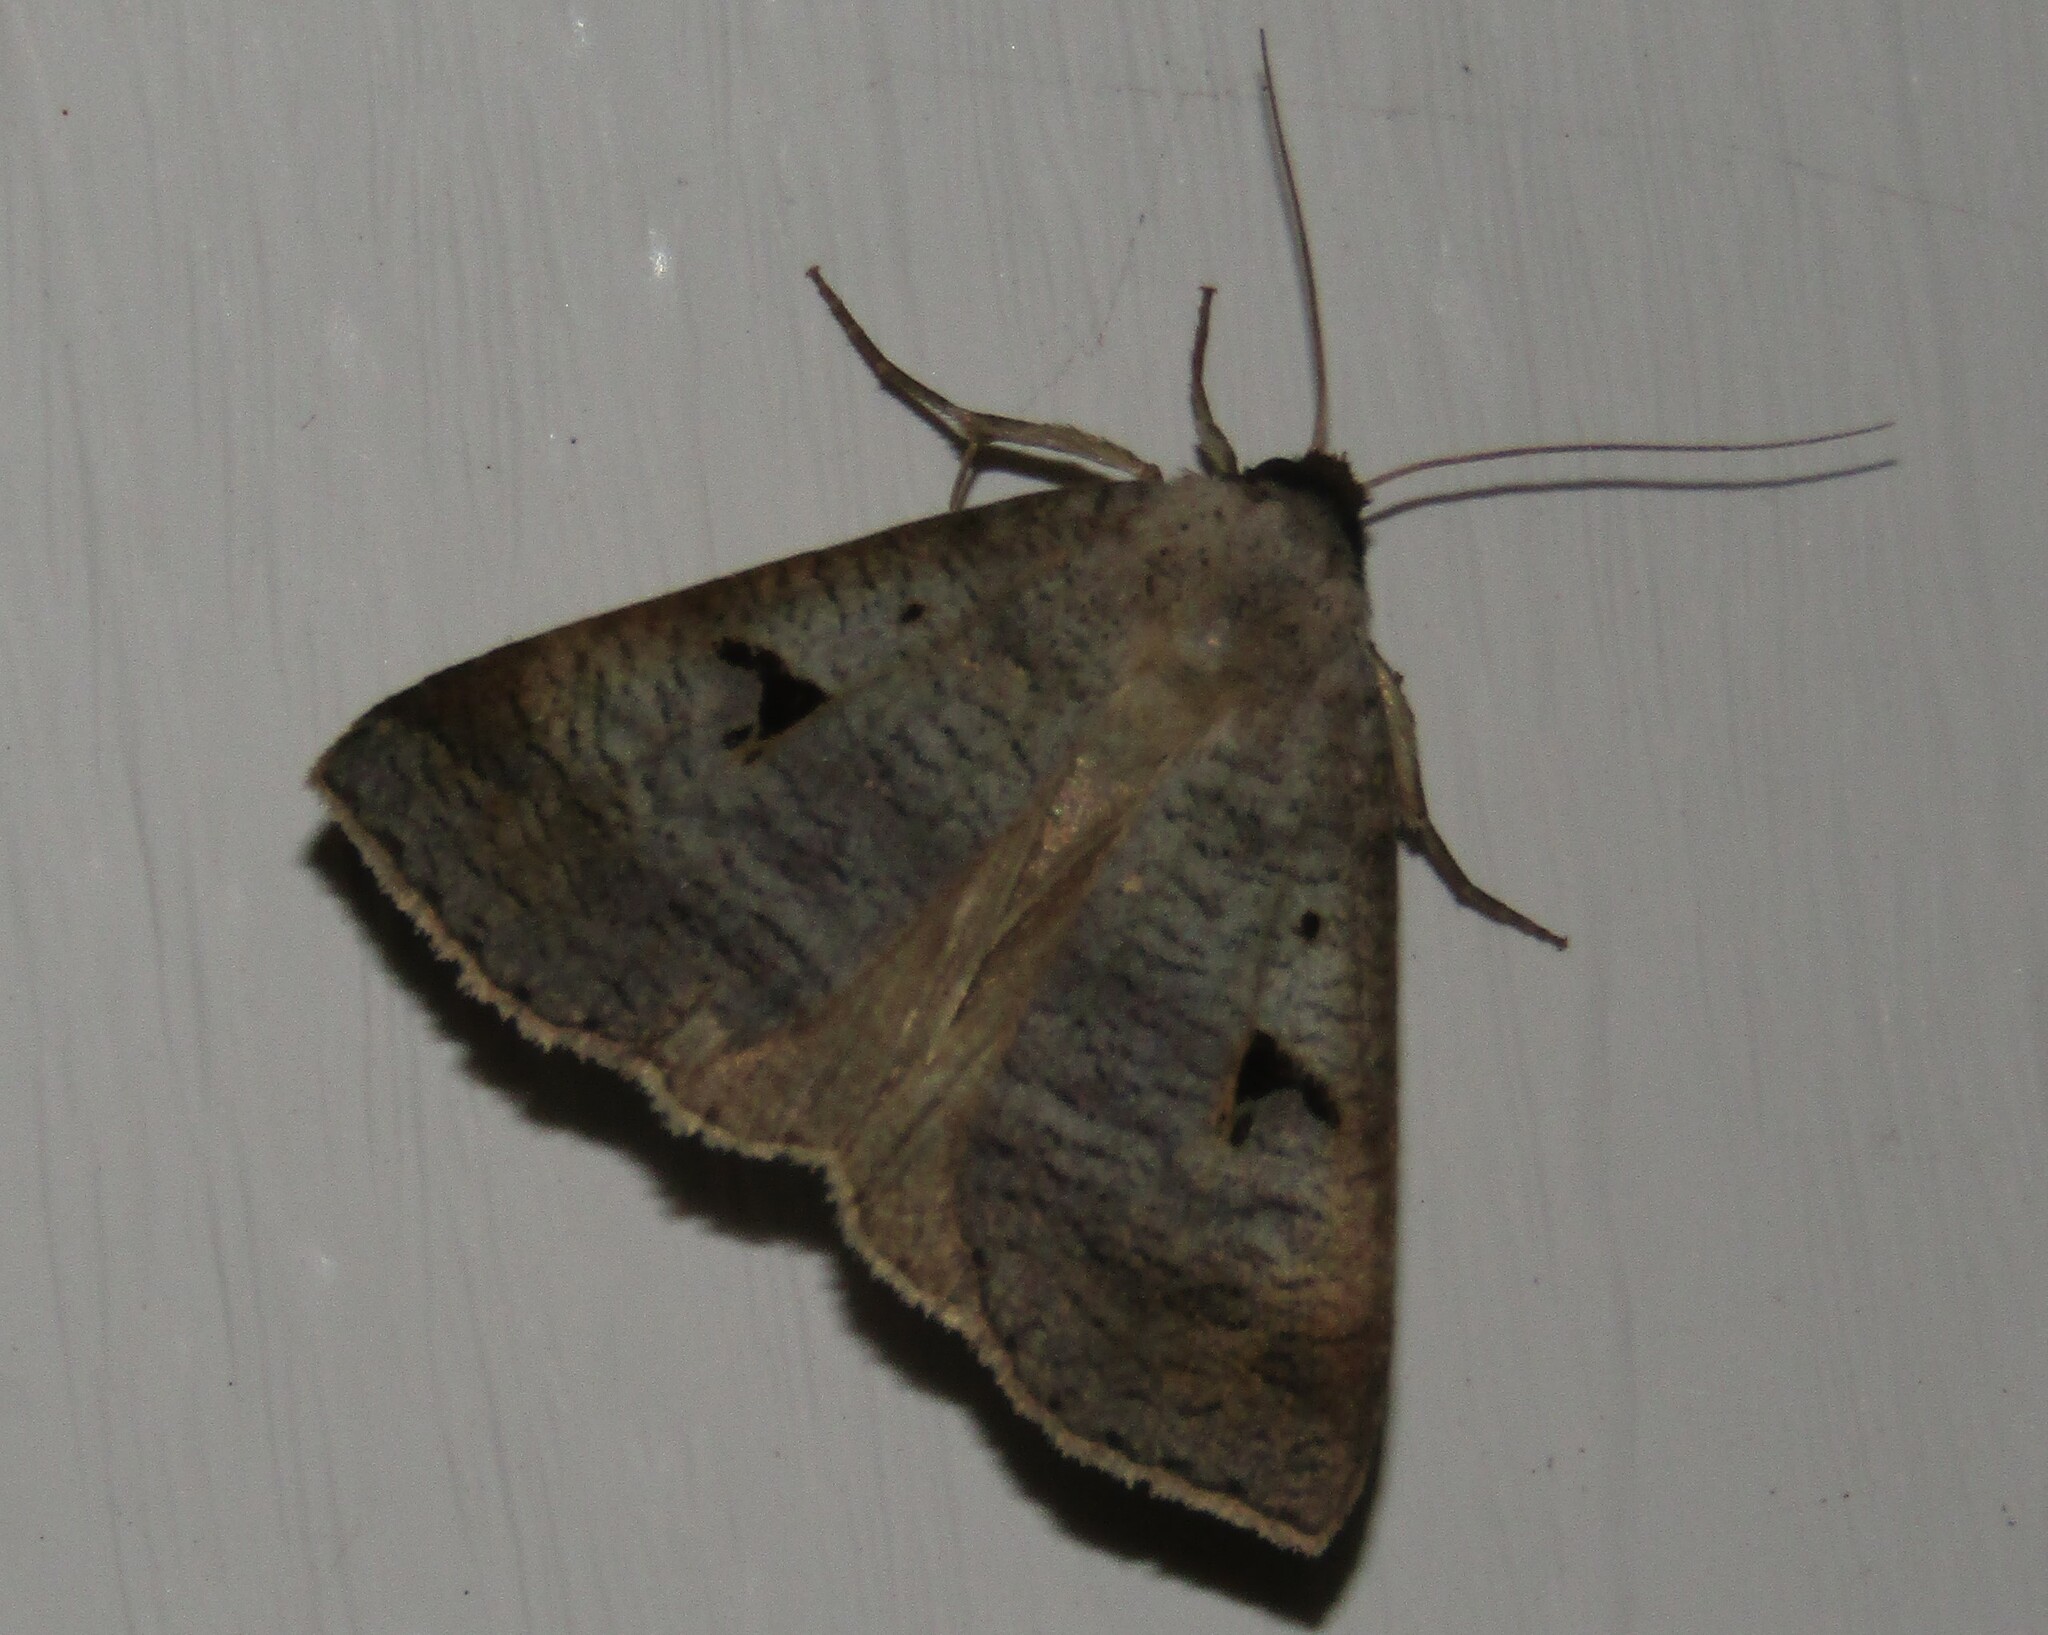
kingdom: Animalia
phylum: Arthropoda
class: Insecta
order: Lepidoptera
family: Erebidae
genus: Lygephila
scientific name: Lygephila pastinum
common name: Blackneck
